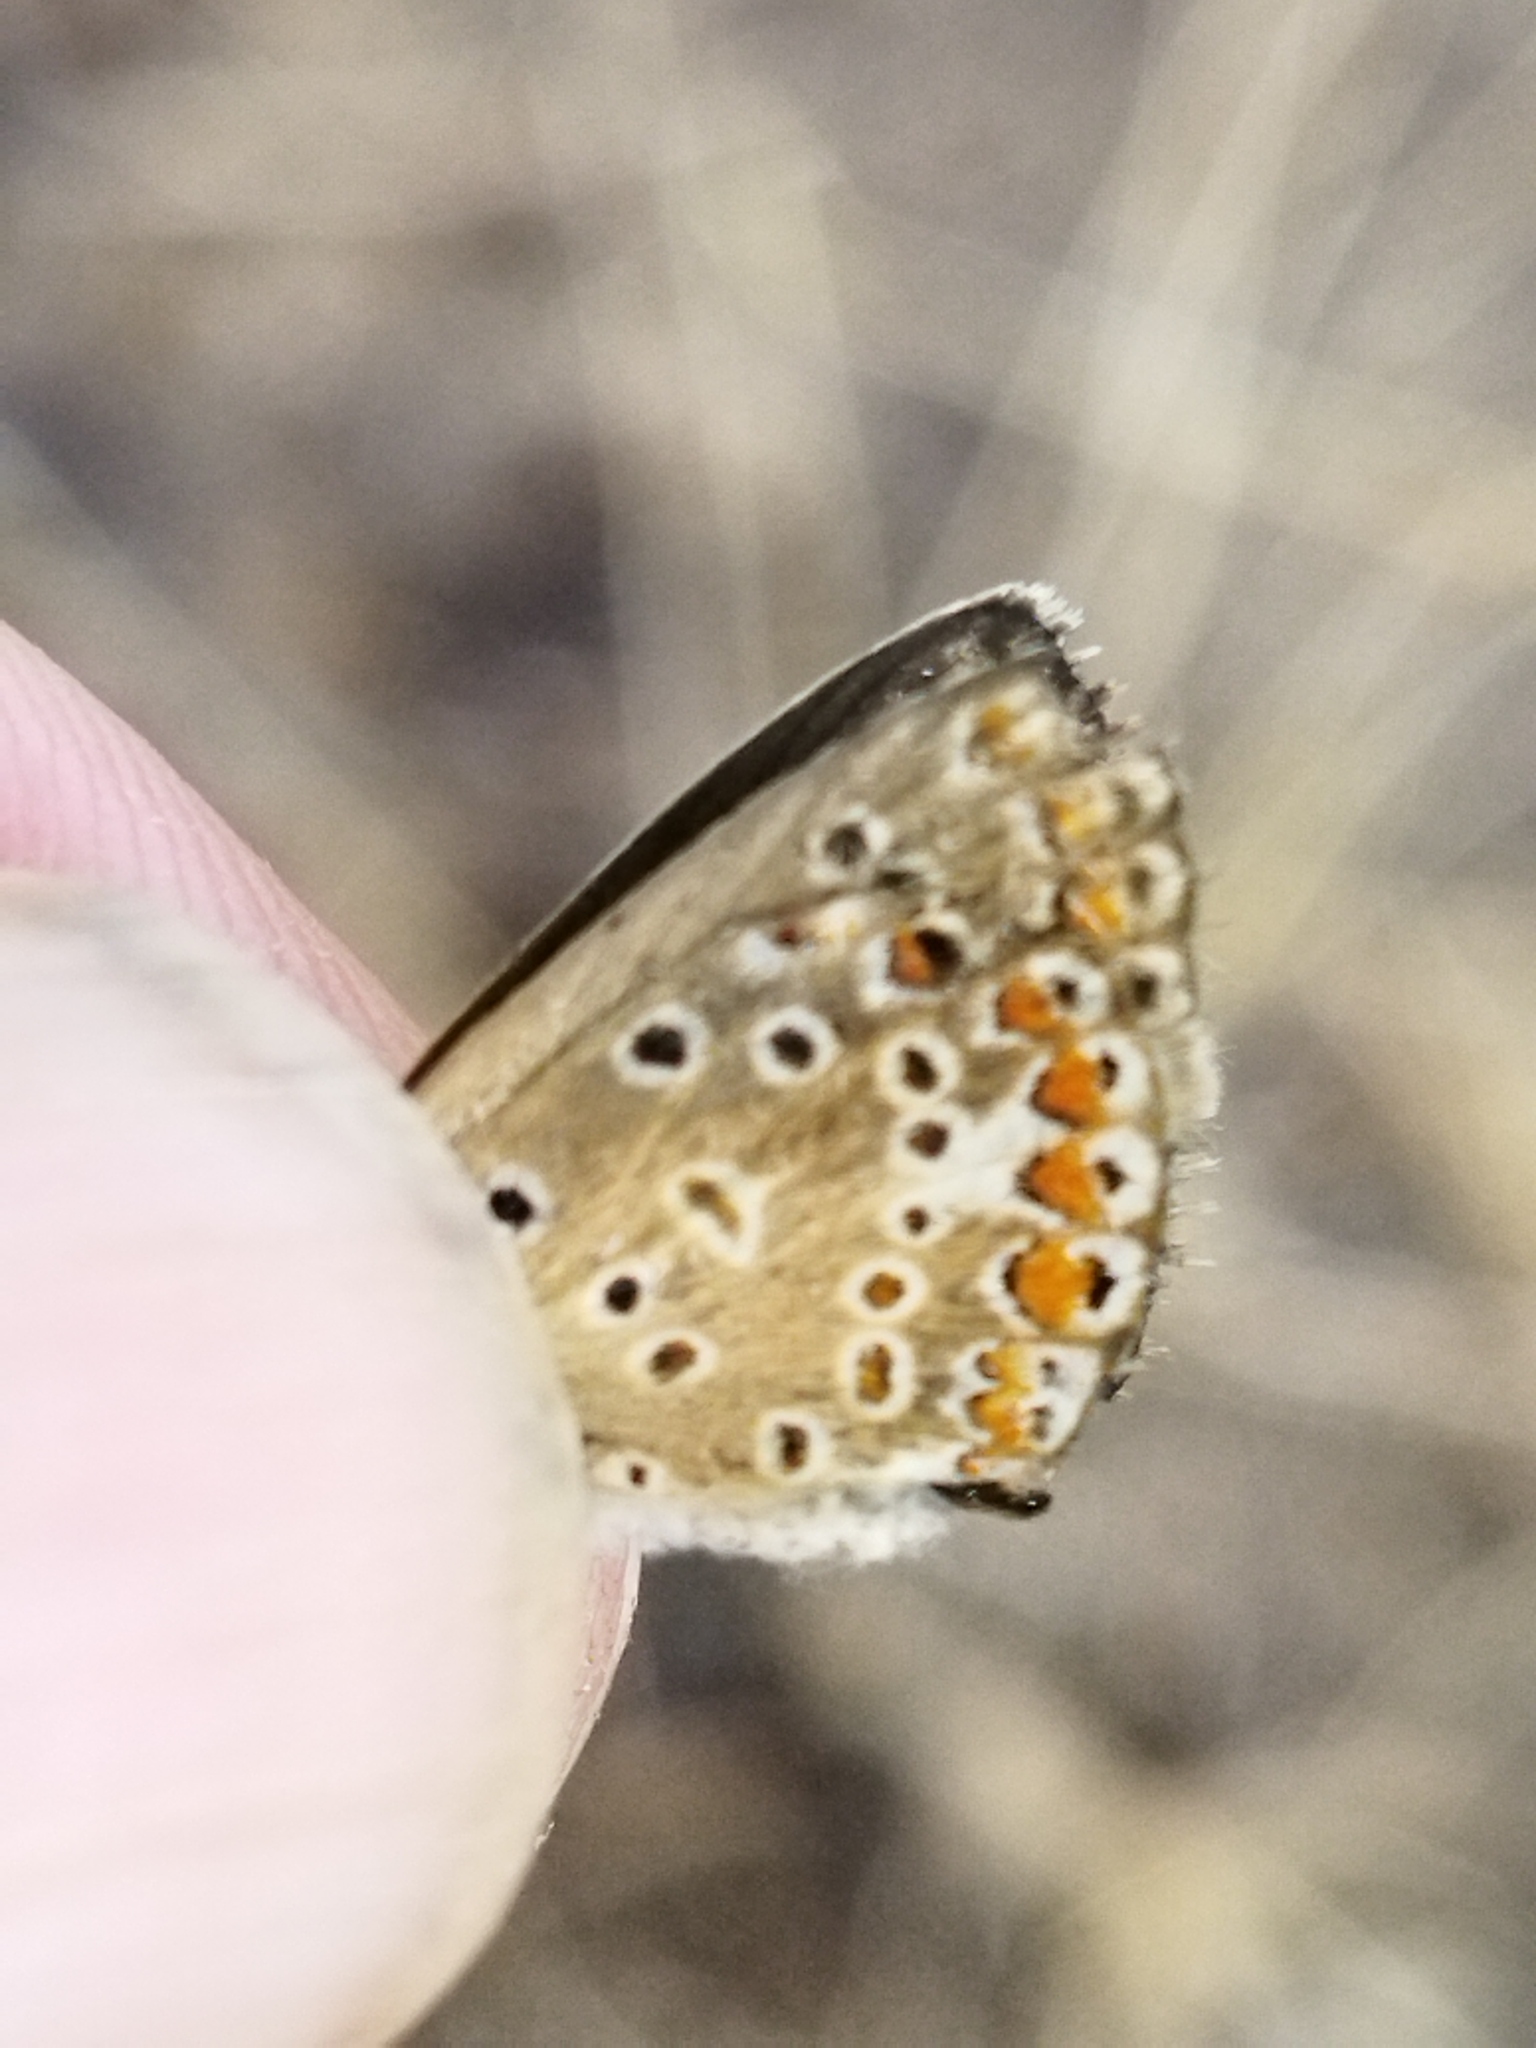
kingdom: Animalia
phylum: Arthropoda
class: Insecta
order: Lepidoptera
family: Lycaenidae
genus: Polyommatus
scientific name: Polyommatus icarus
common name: Common blue
